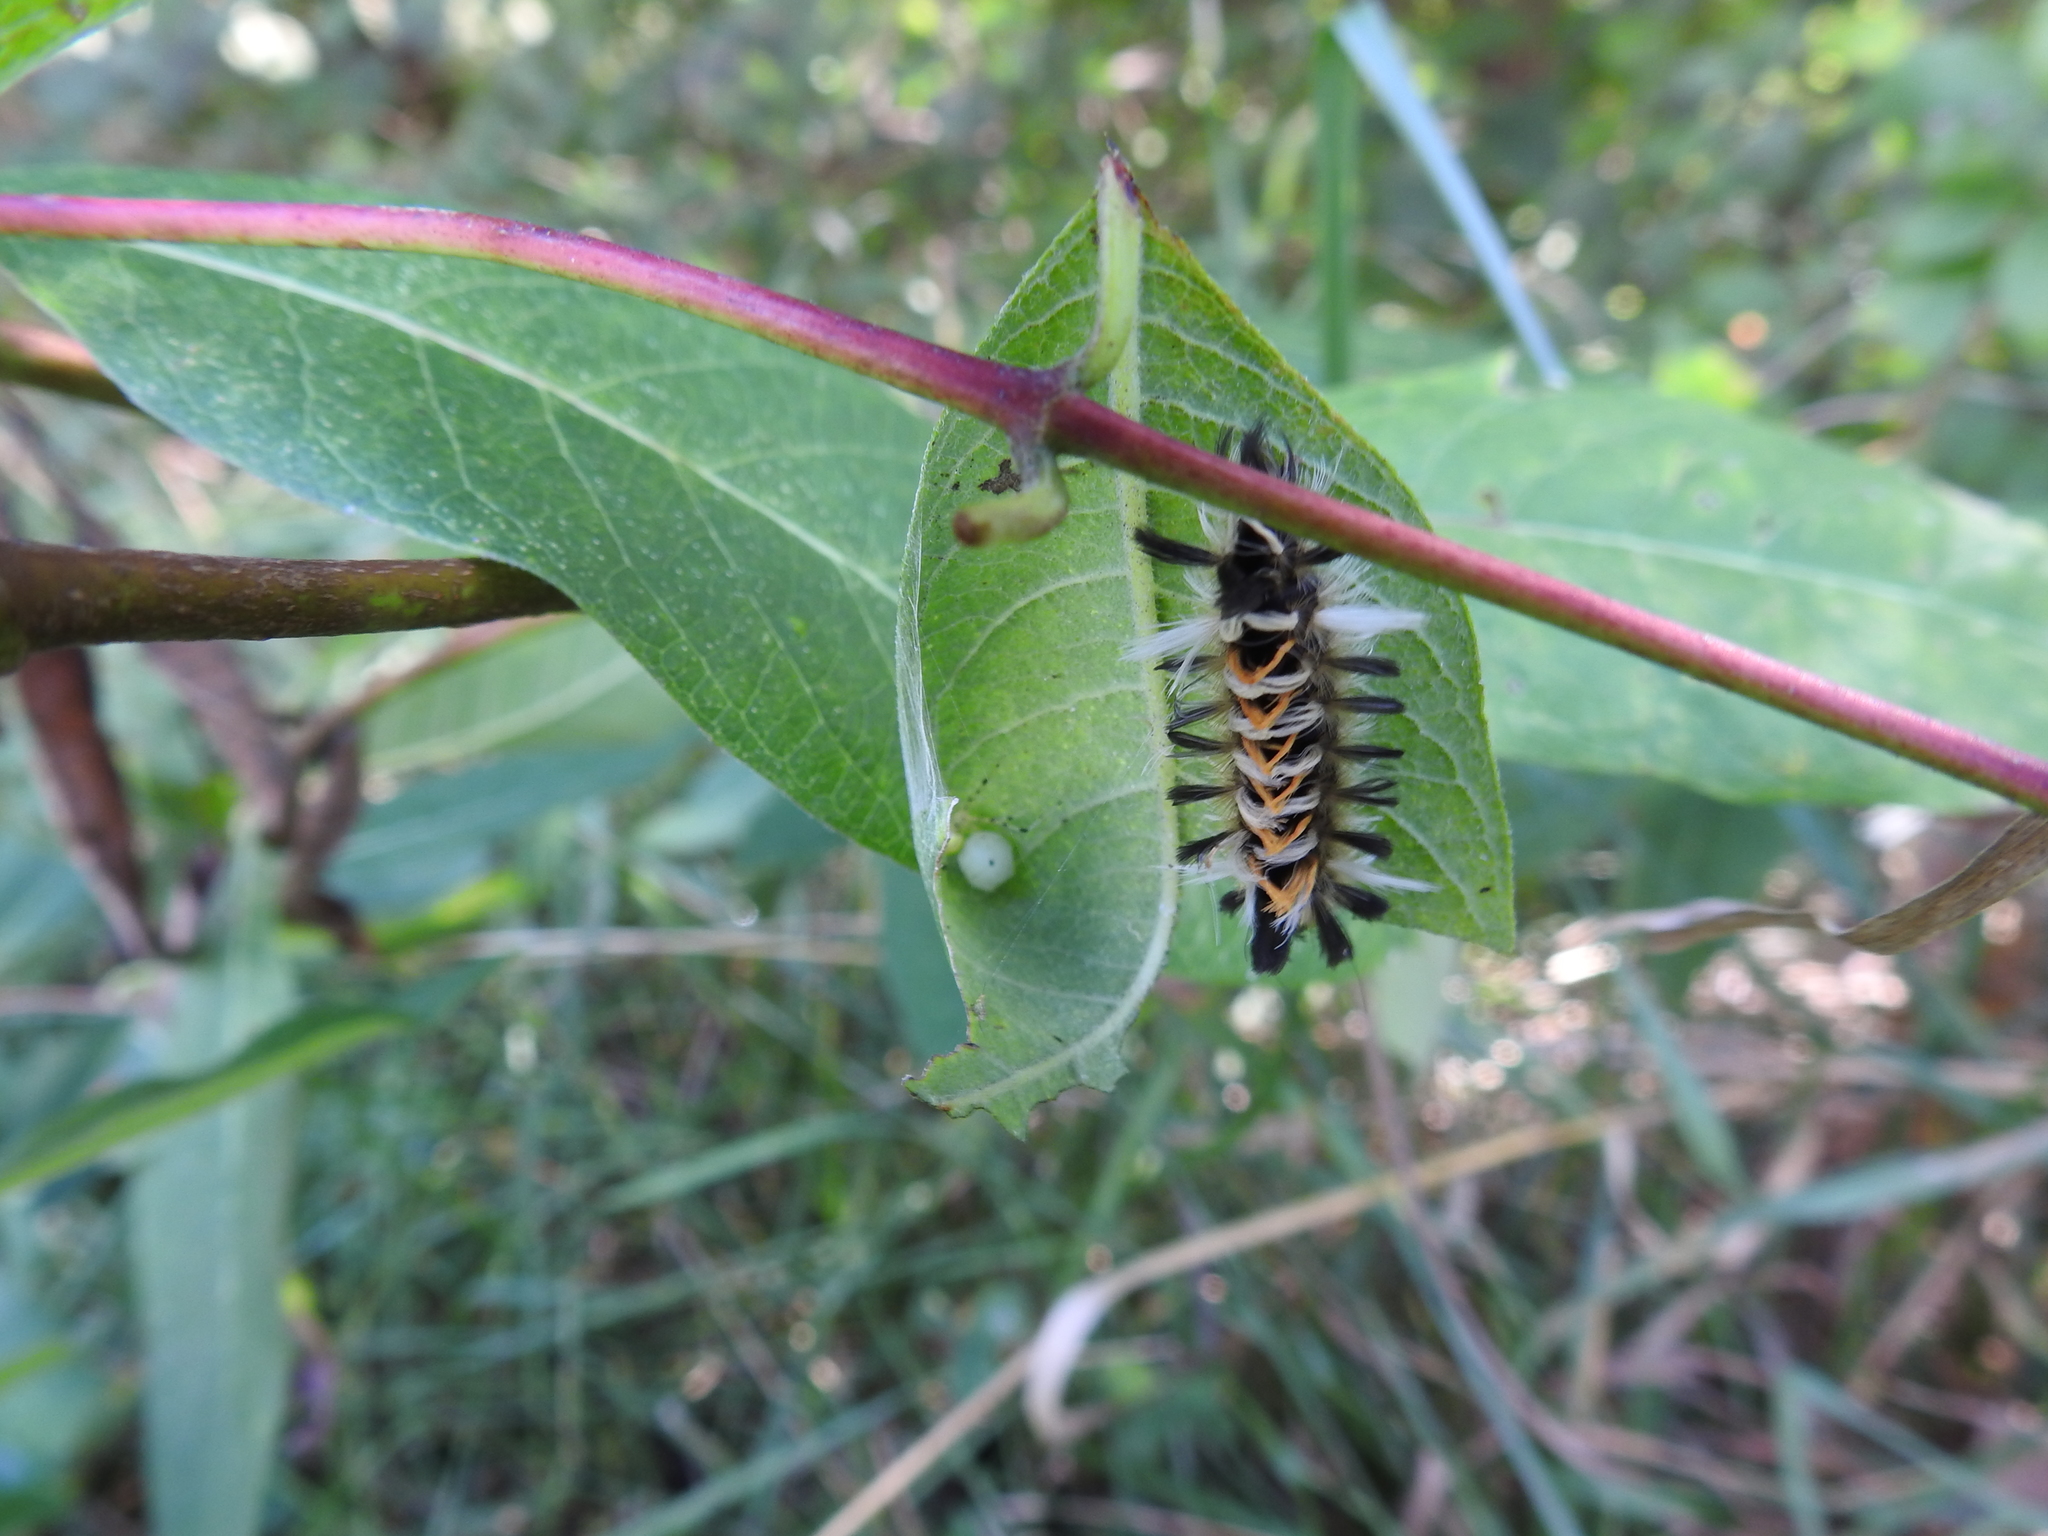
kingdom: Animalia
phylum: Arthropoda
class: Insecta
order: Lepidoptera
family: Erebidae
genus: Euchaetes
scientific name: Euchaetes egle
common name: Milkweed tussock moth
